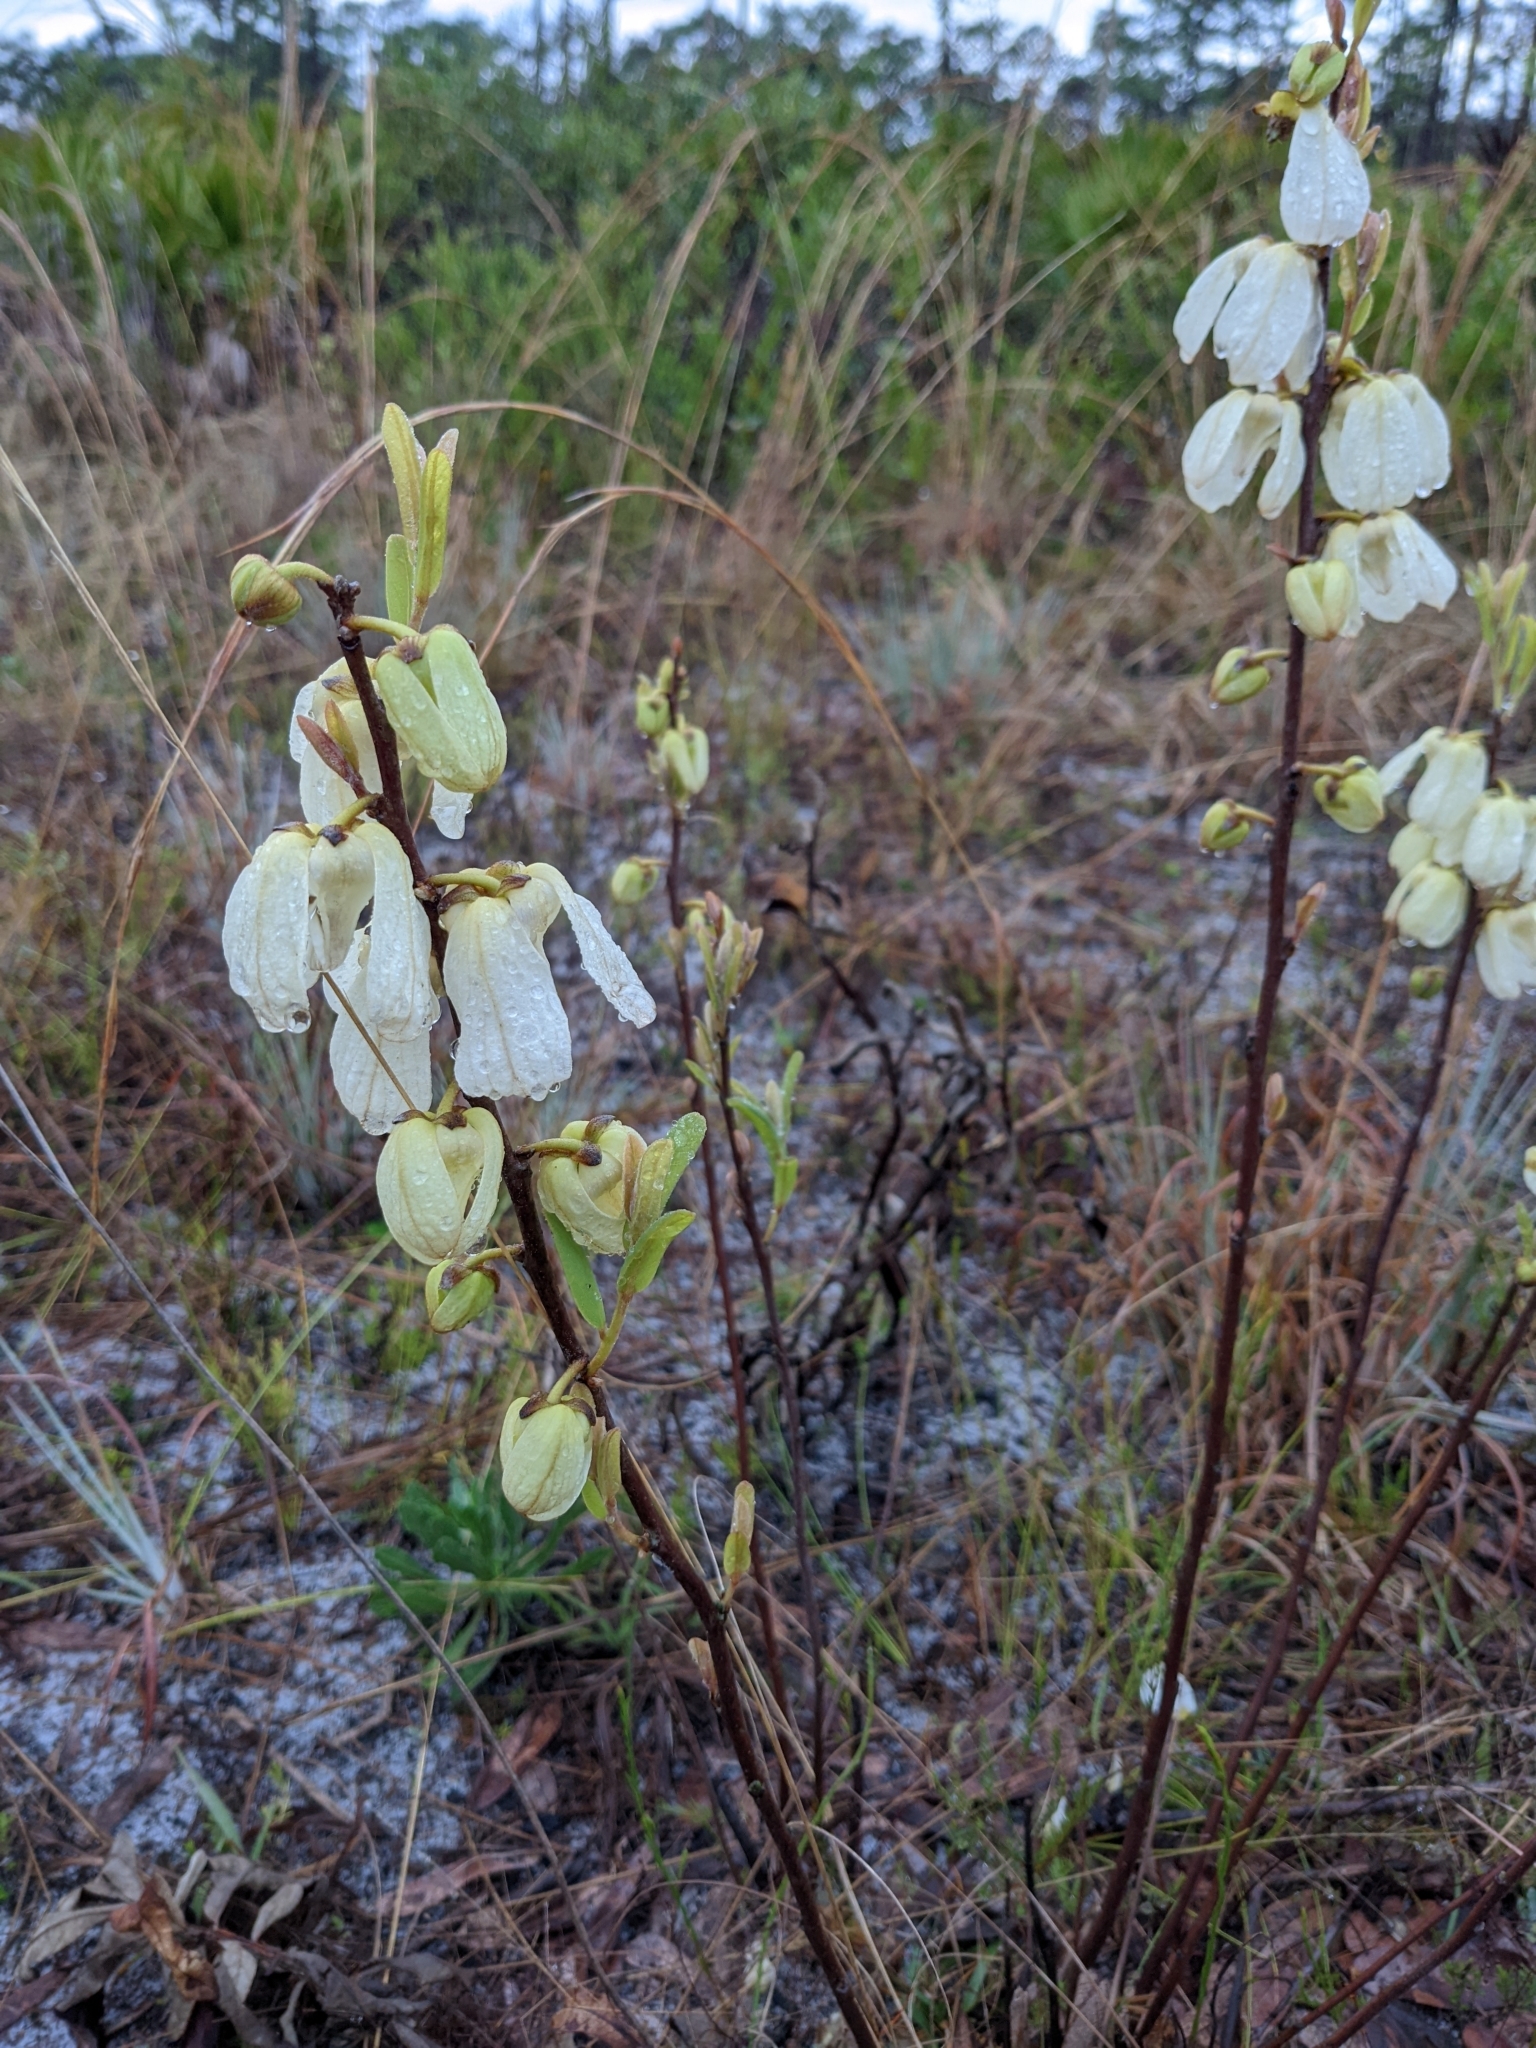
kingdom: Plantae
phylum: Tracheophyta
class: Magnoliopsida
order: Magnoliales
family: Annonaceae
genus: Asimina
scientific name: Asimina reticulata
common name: Flag pawpaw
